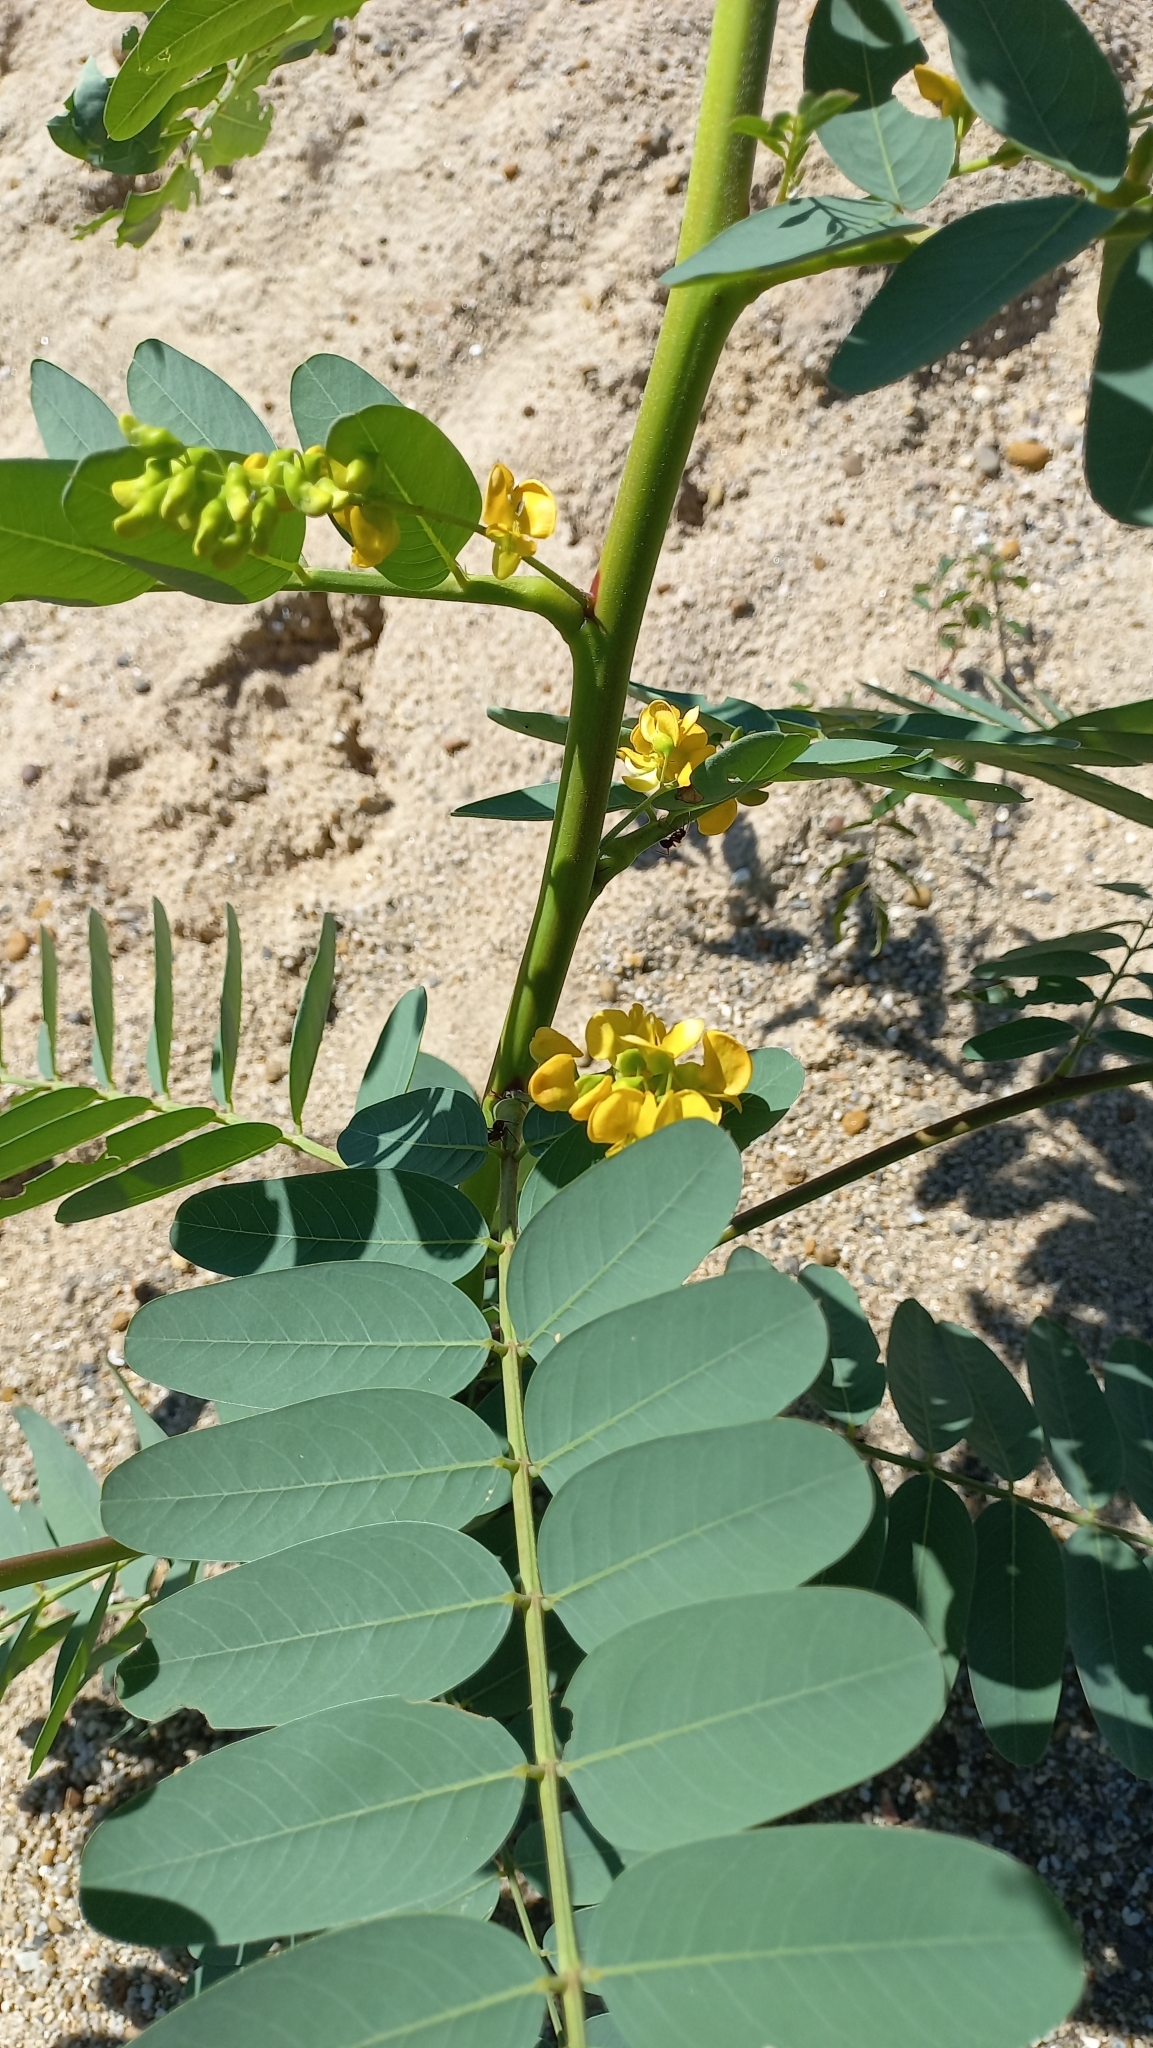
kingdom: Plantae
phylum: Tracheophyta
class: Magnoliopsida
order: Fabales
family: Fabaceae
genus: Sesbania
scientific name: Sesbania virgata
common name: Wand riverhemp
